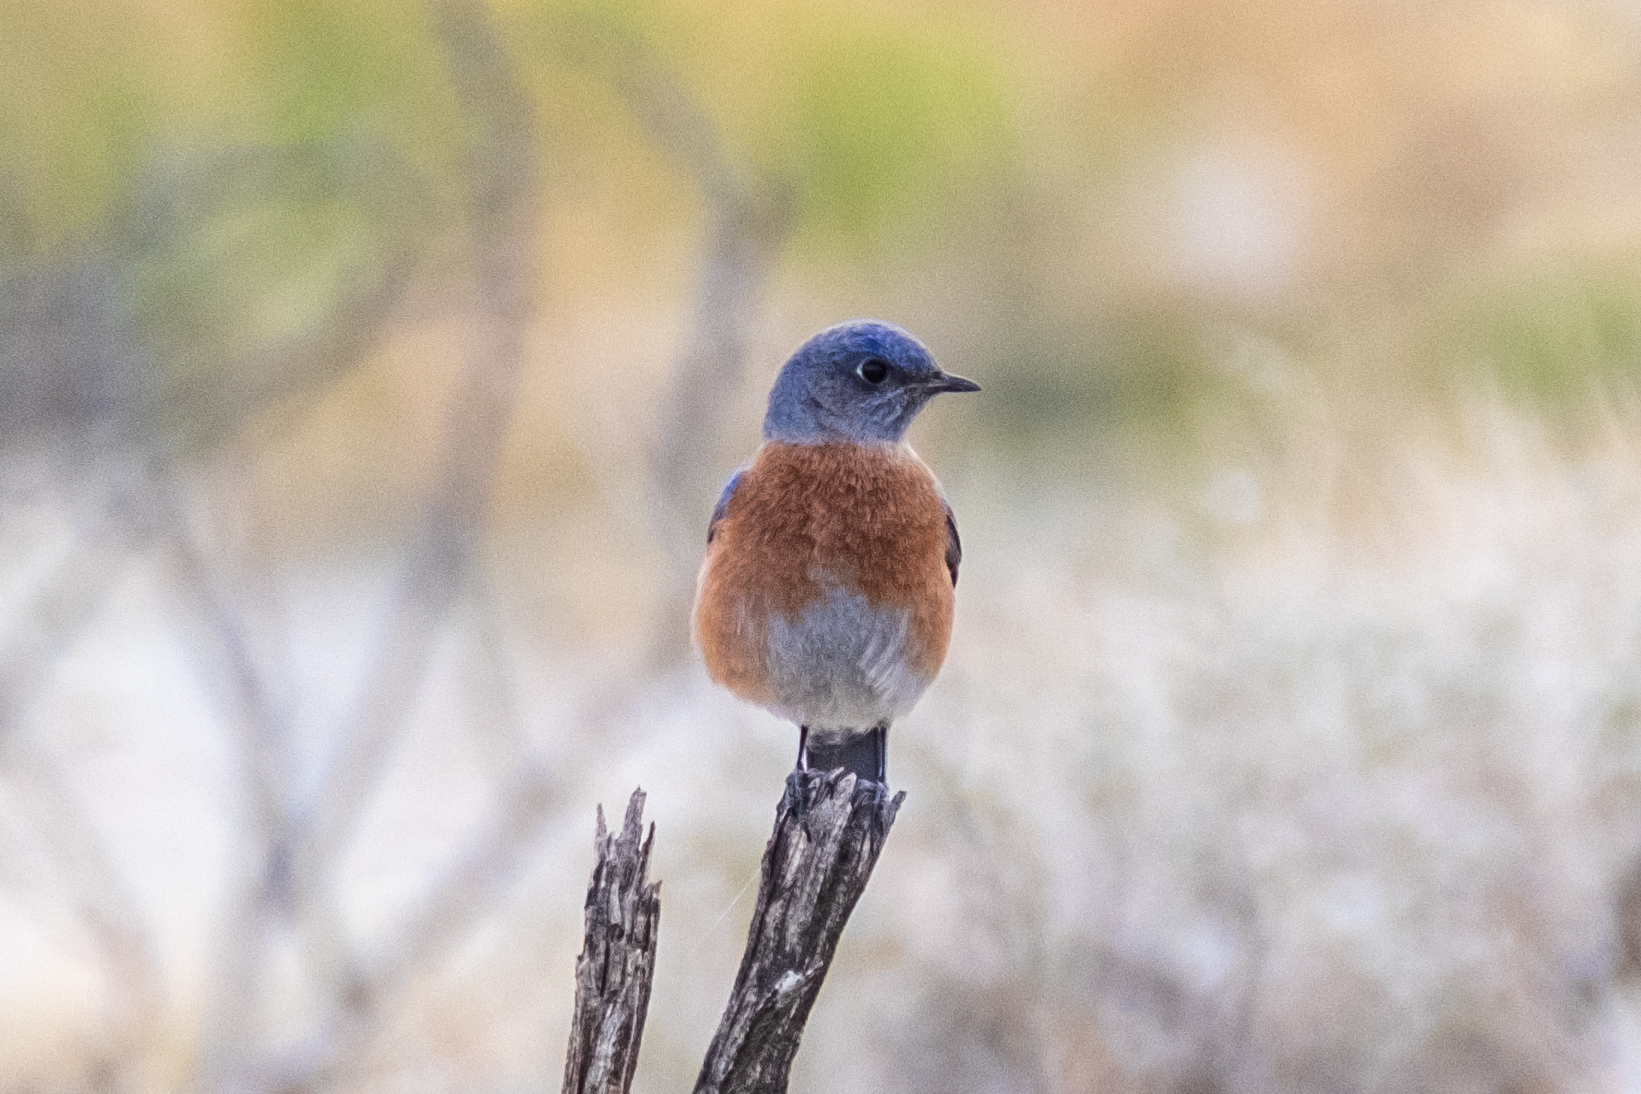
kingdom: Animalia
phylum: Chordata
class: Aves
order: Passeriformes
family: Turdidae
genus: Sialia
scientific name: Sialia mexicana
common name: Western bluebird
